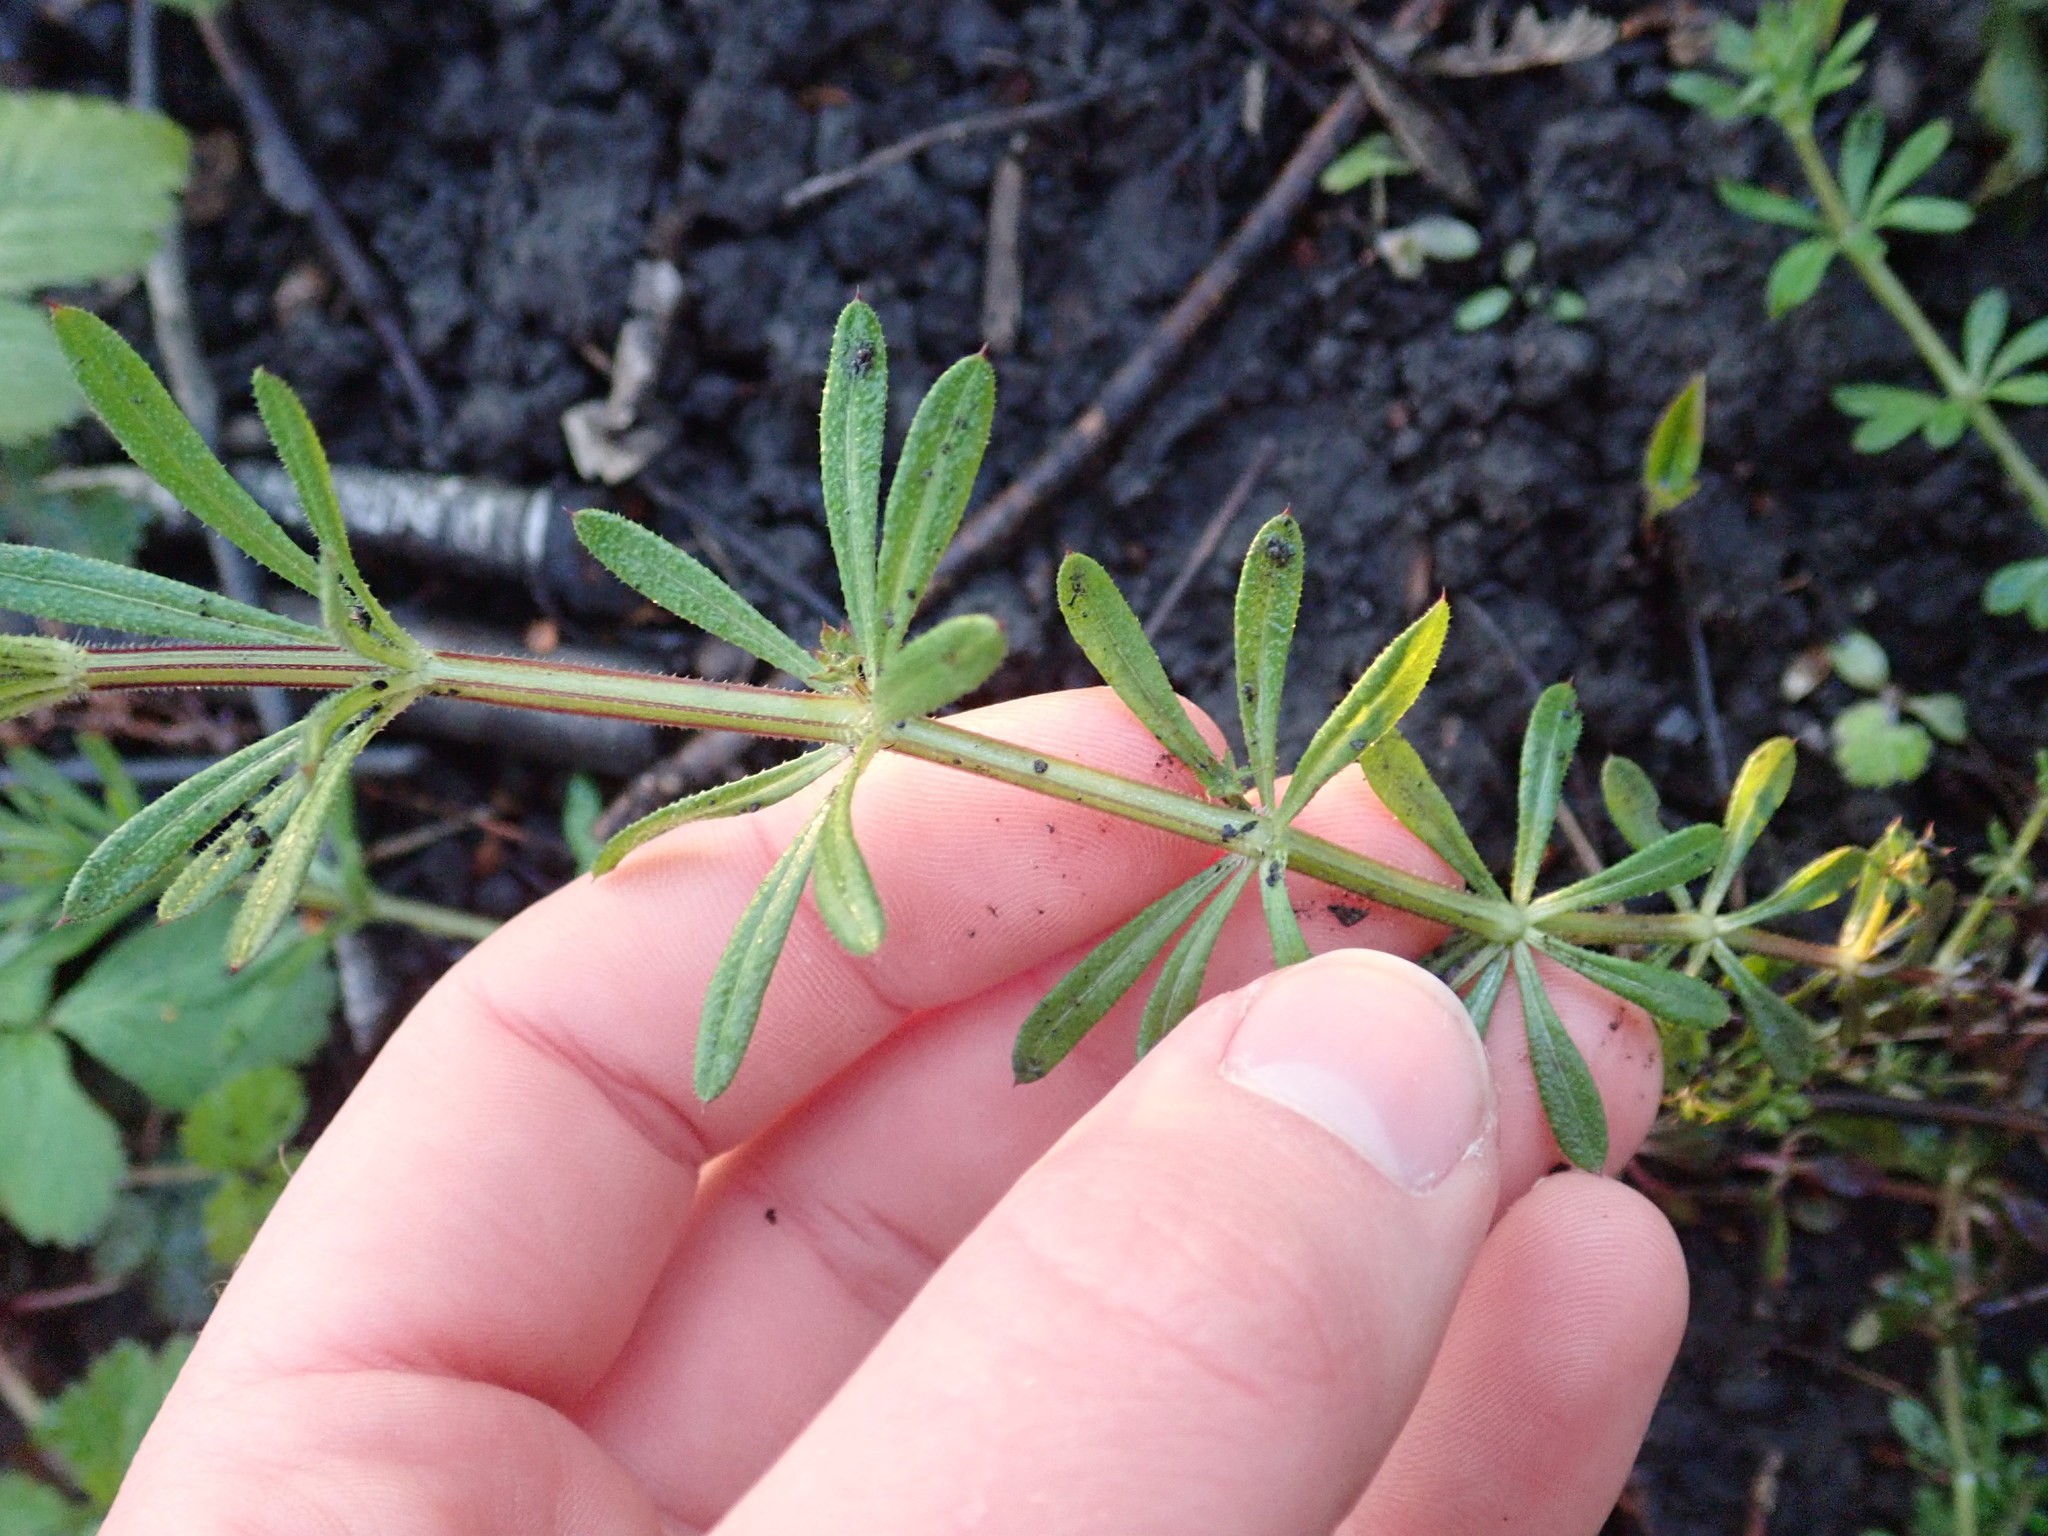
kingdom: Plantae
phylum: Tracheophyta
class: Magnoliopsida
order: Gentianales
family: Rubiaceae
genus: Galium
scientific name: Galium aparine
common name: Cleavers
